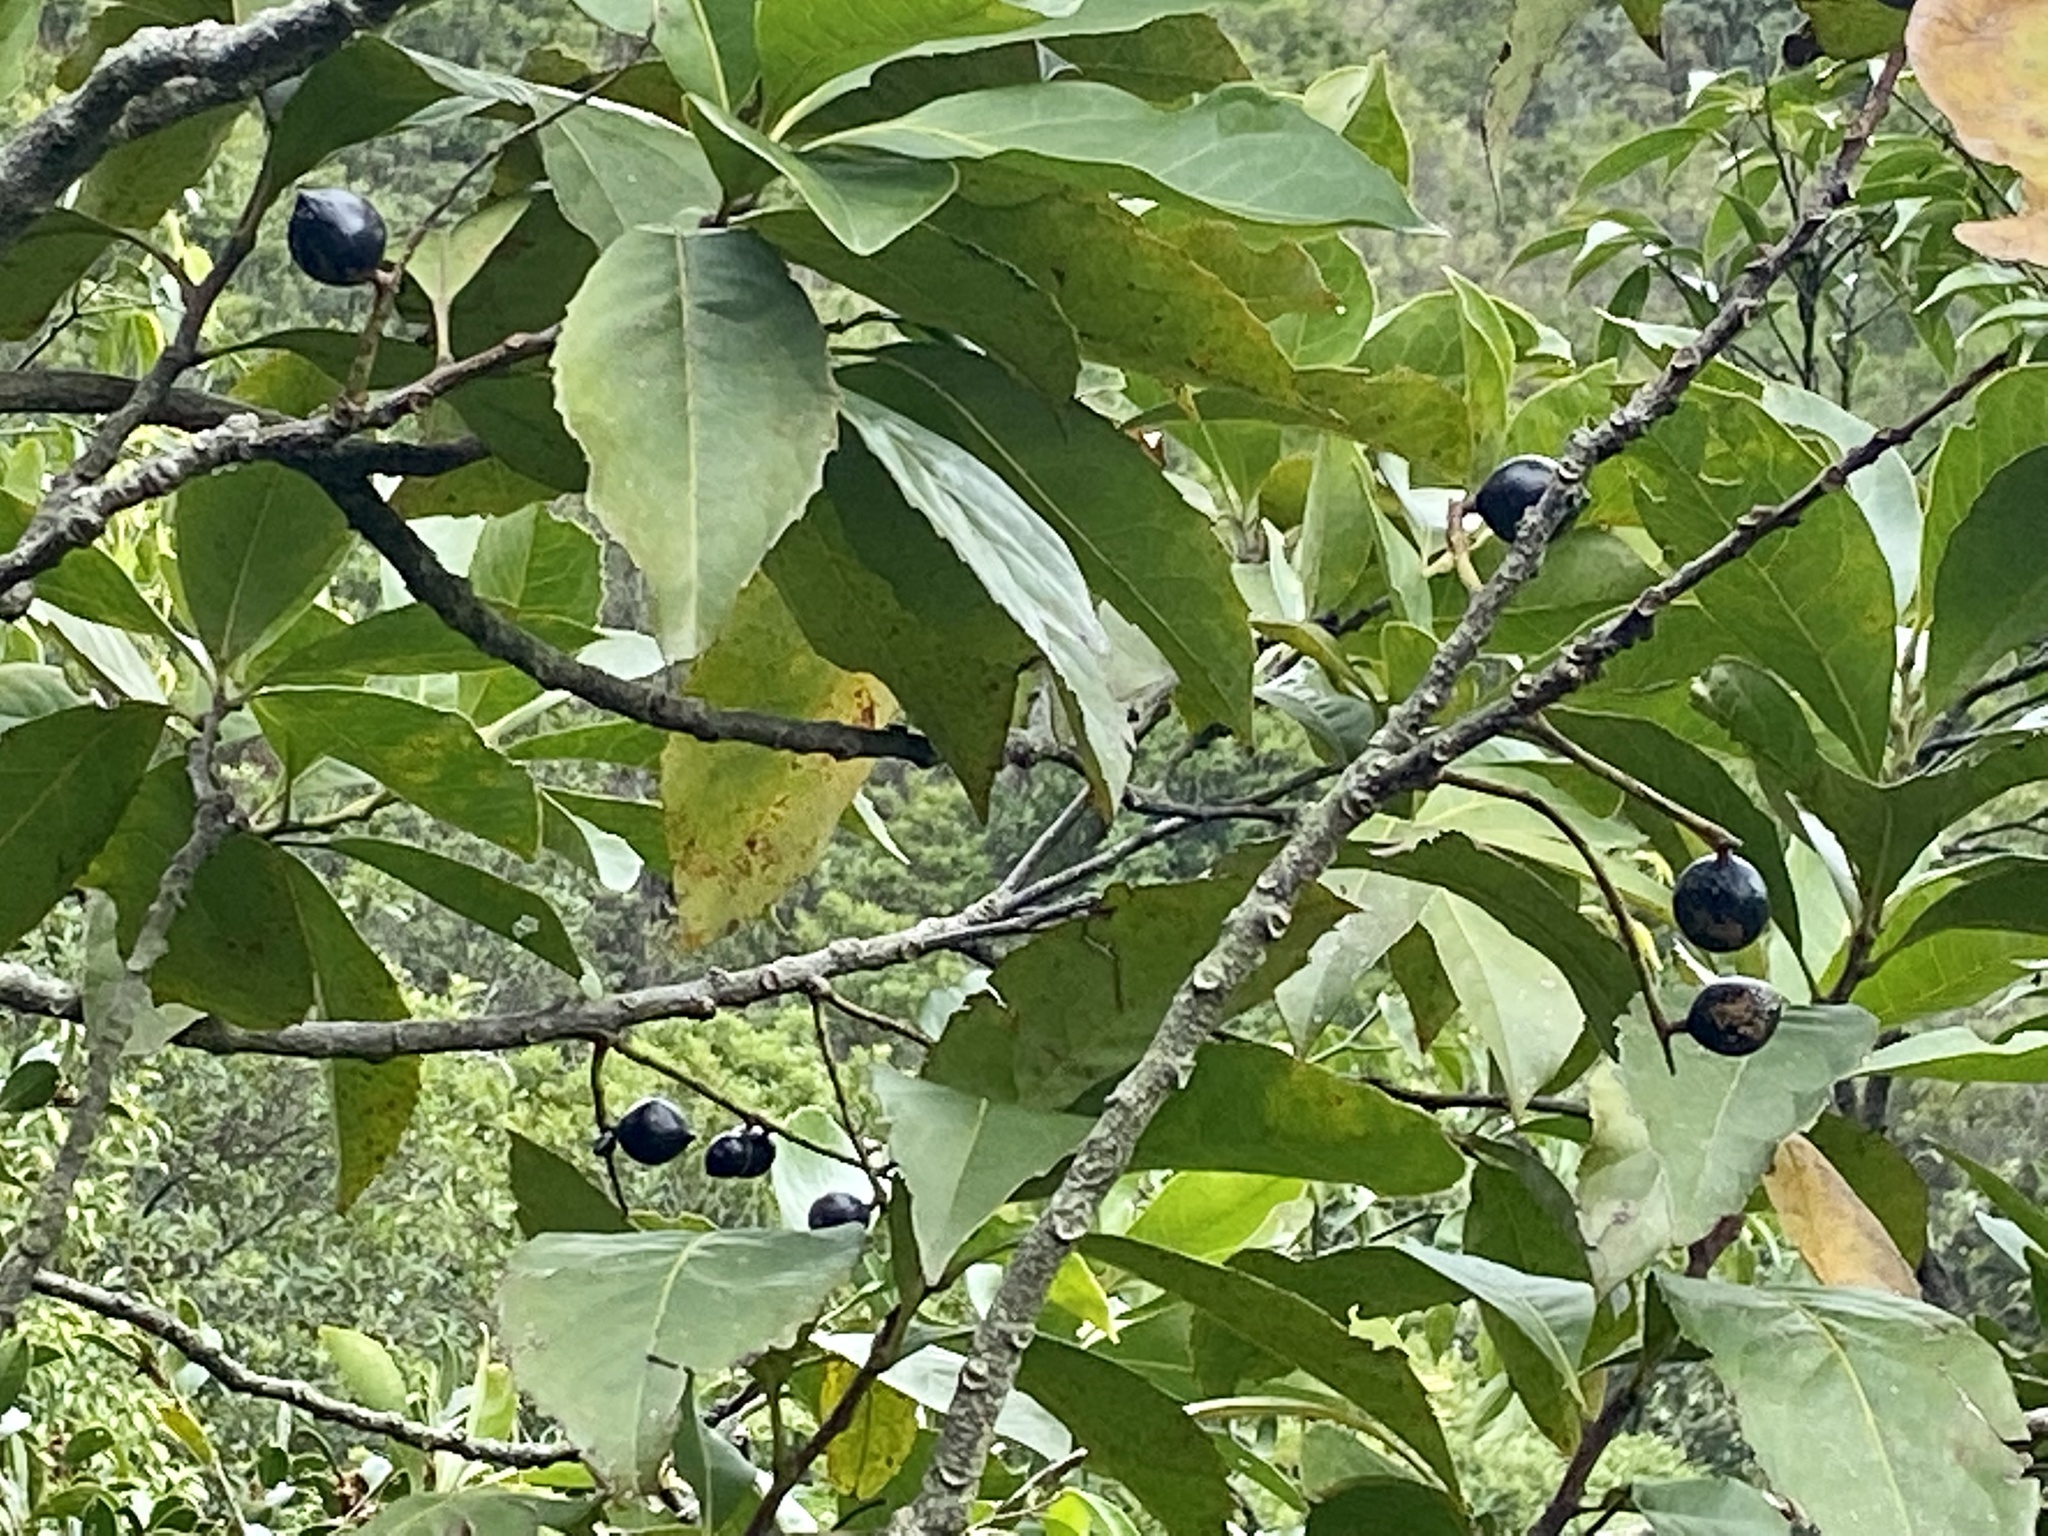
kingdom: Plantae
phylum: Tracheophyta
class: Magnoliopsida
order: Proteales
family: Proteaceae
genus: Helicia
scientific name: Helicia reticulata
